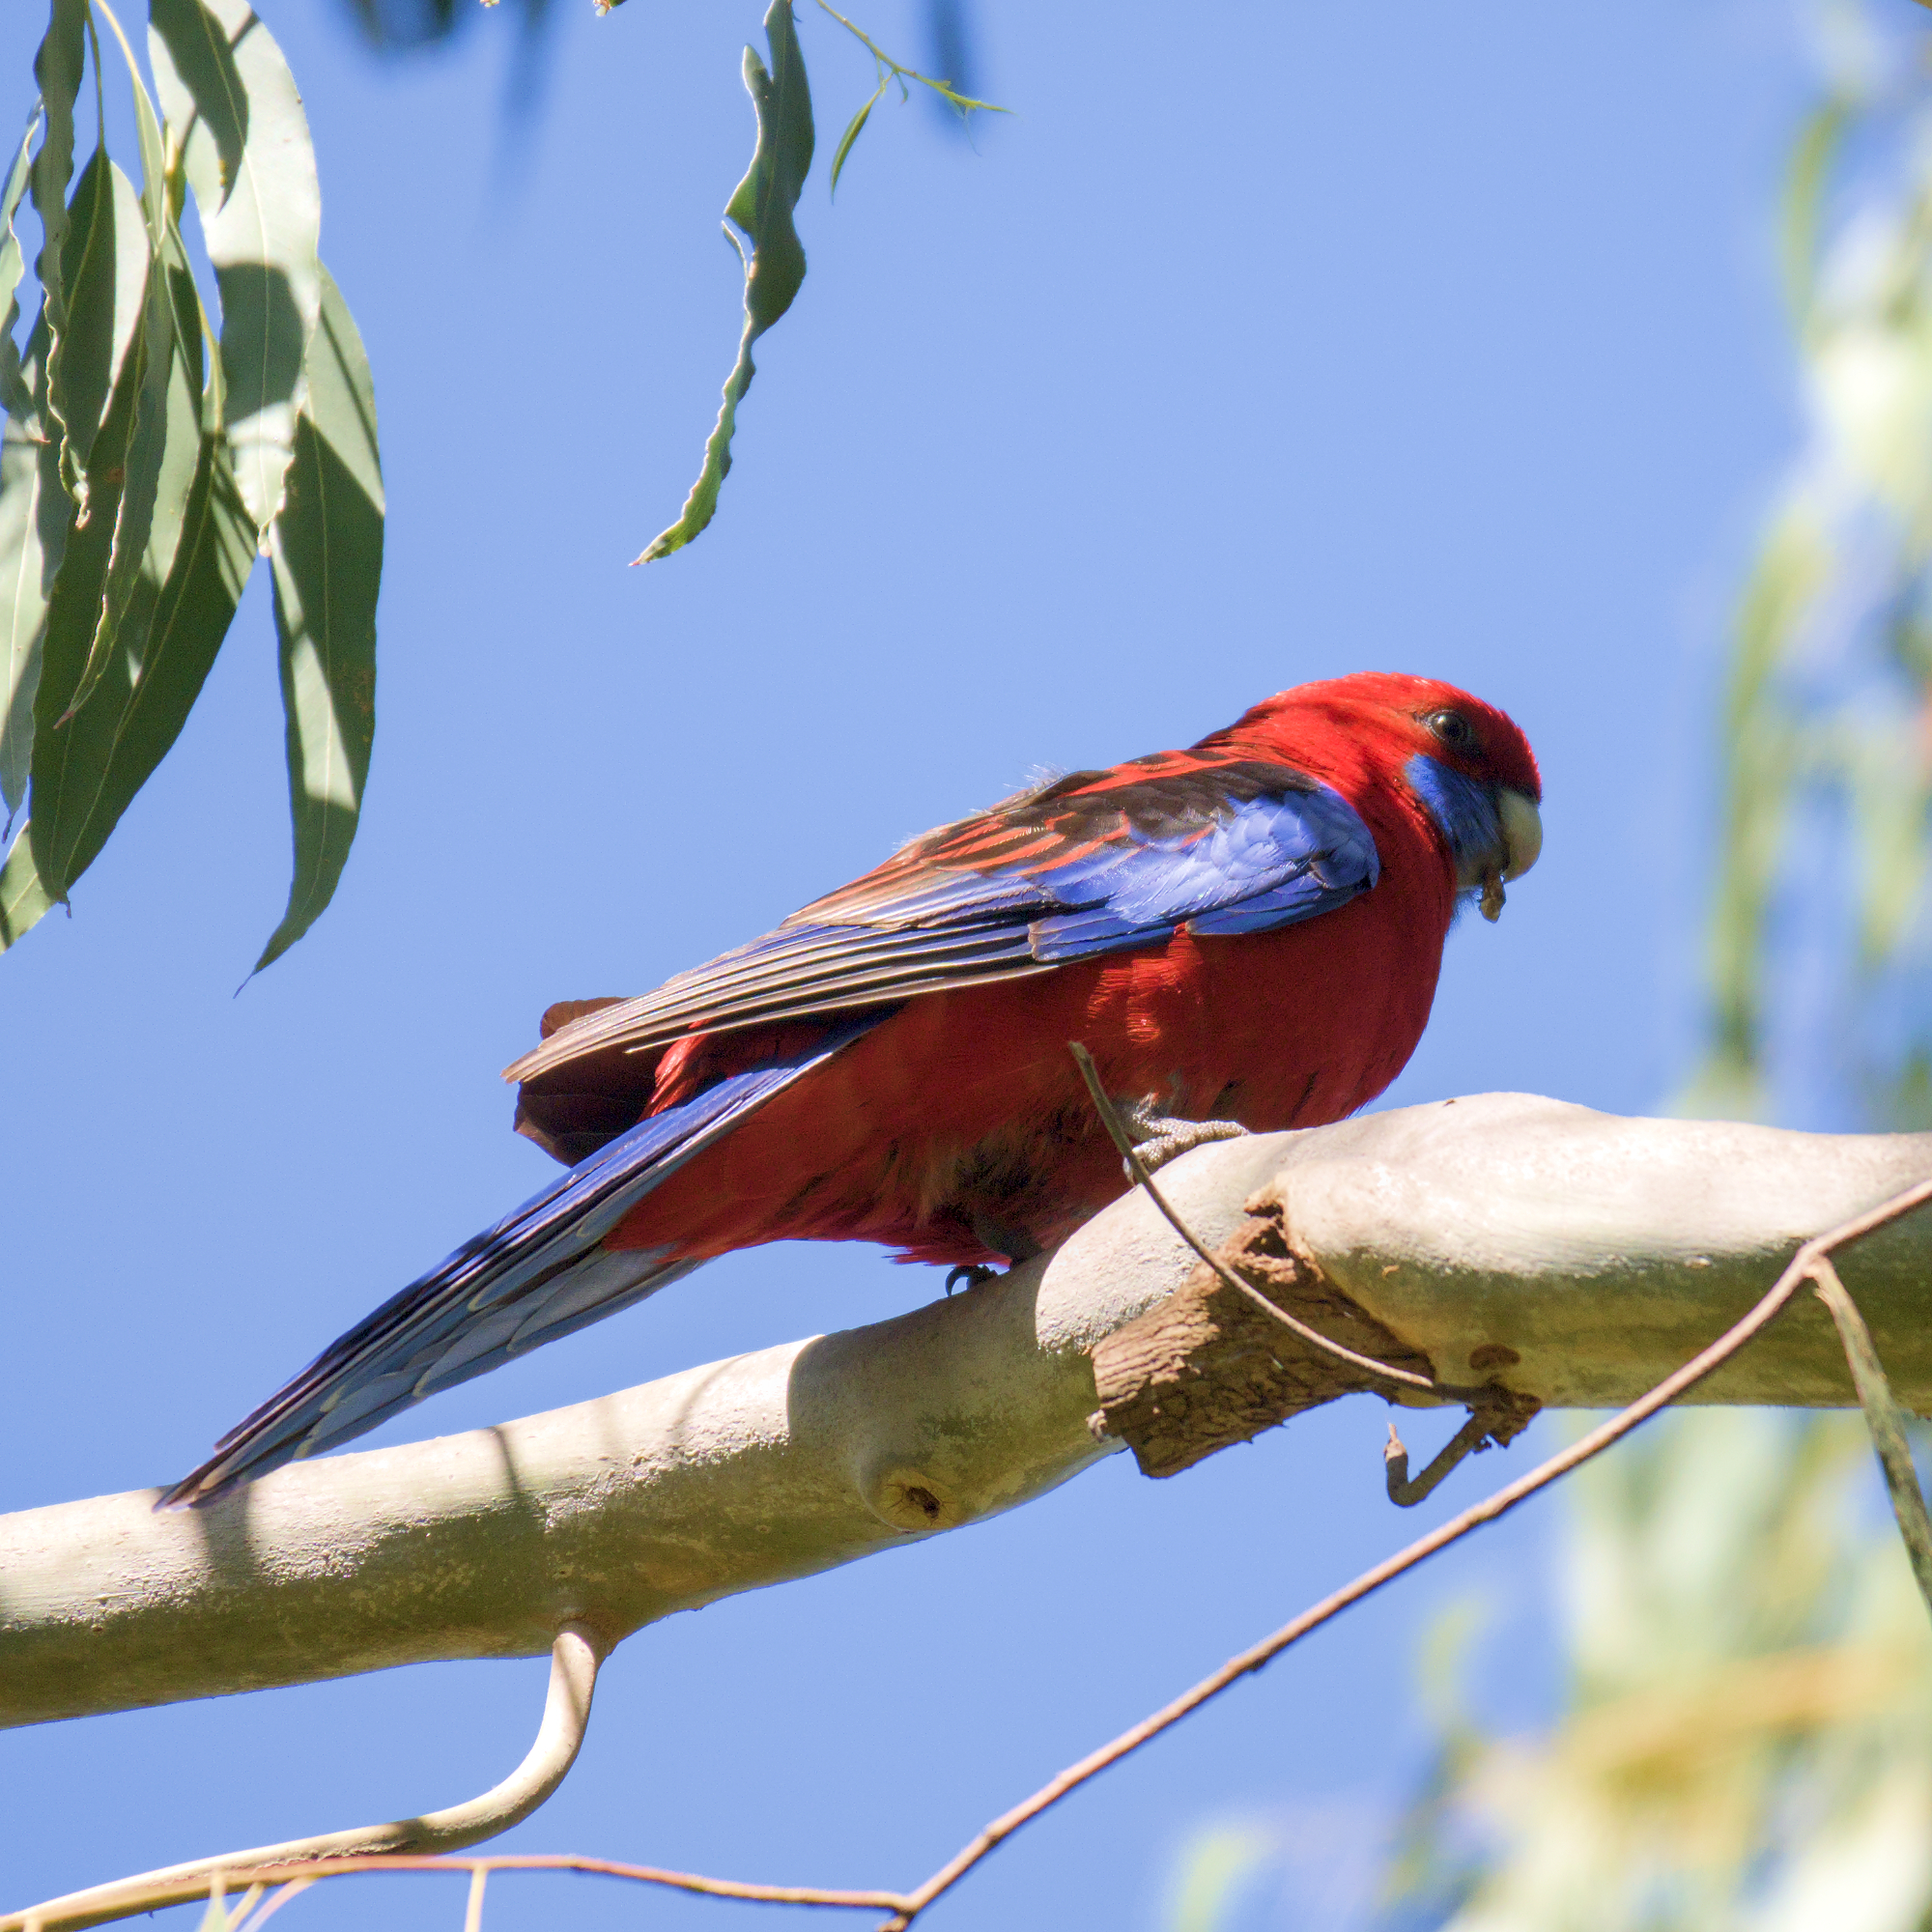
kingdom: Animalia
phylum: Chordata
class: Aves
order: Psittaciformes
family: Psittacidae
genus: Platycercus
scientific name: Platycercus elegans
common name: Crimson rosella
